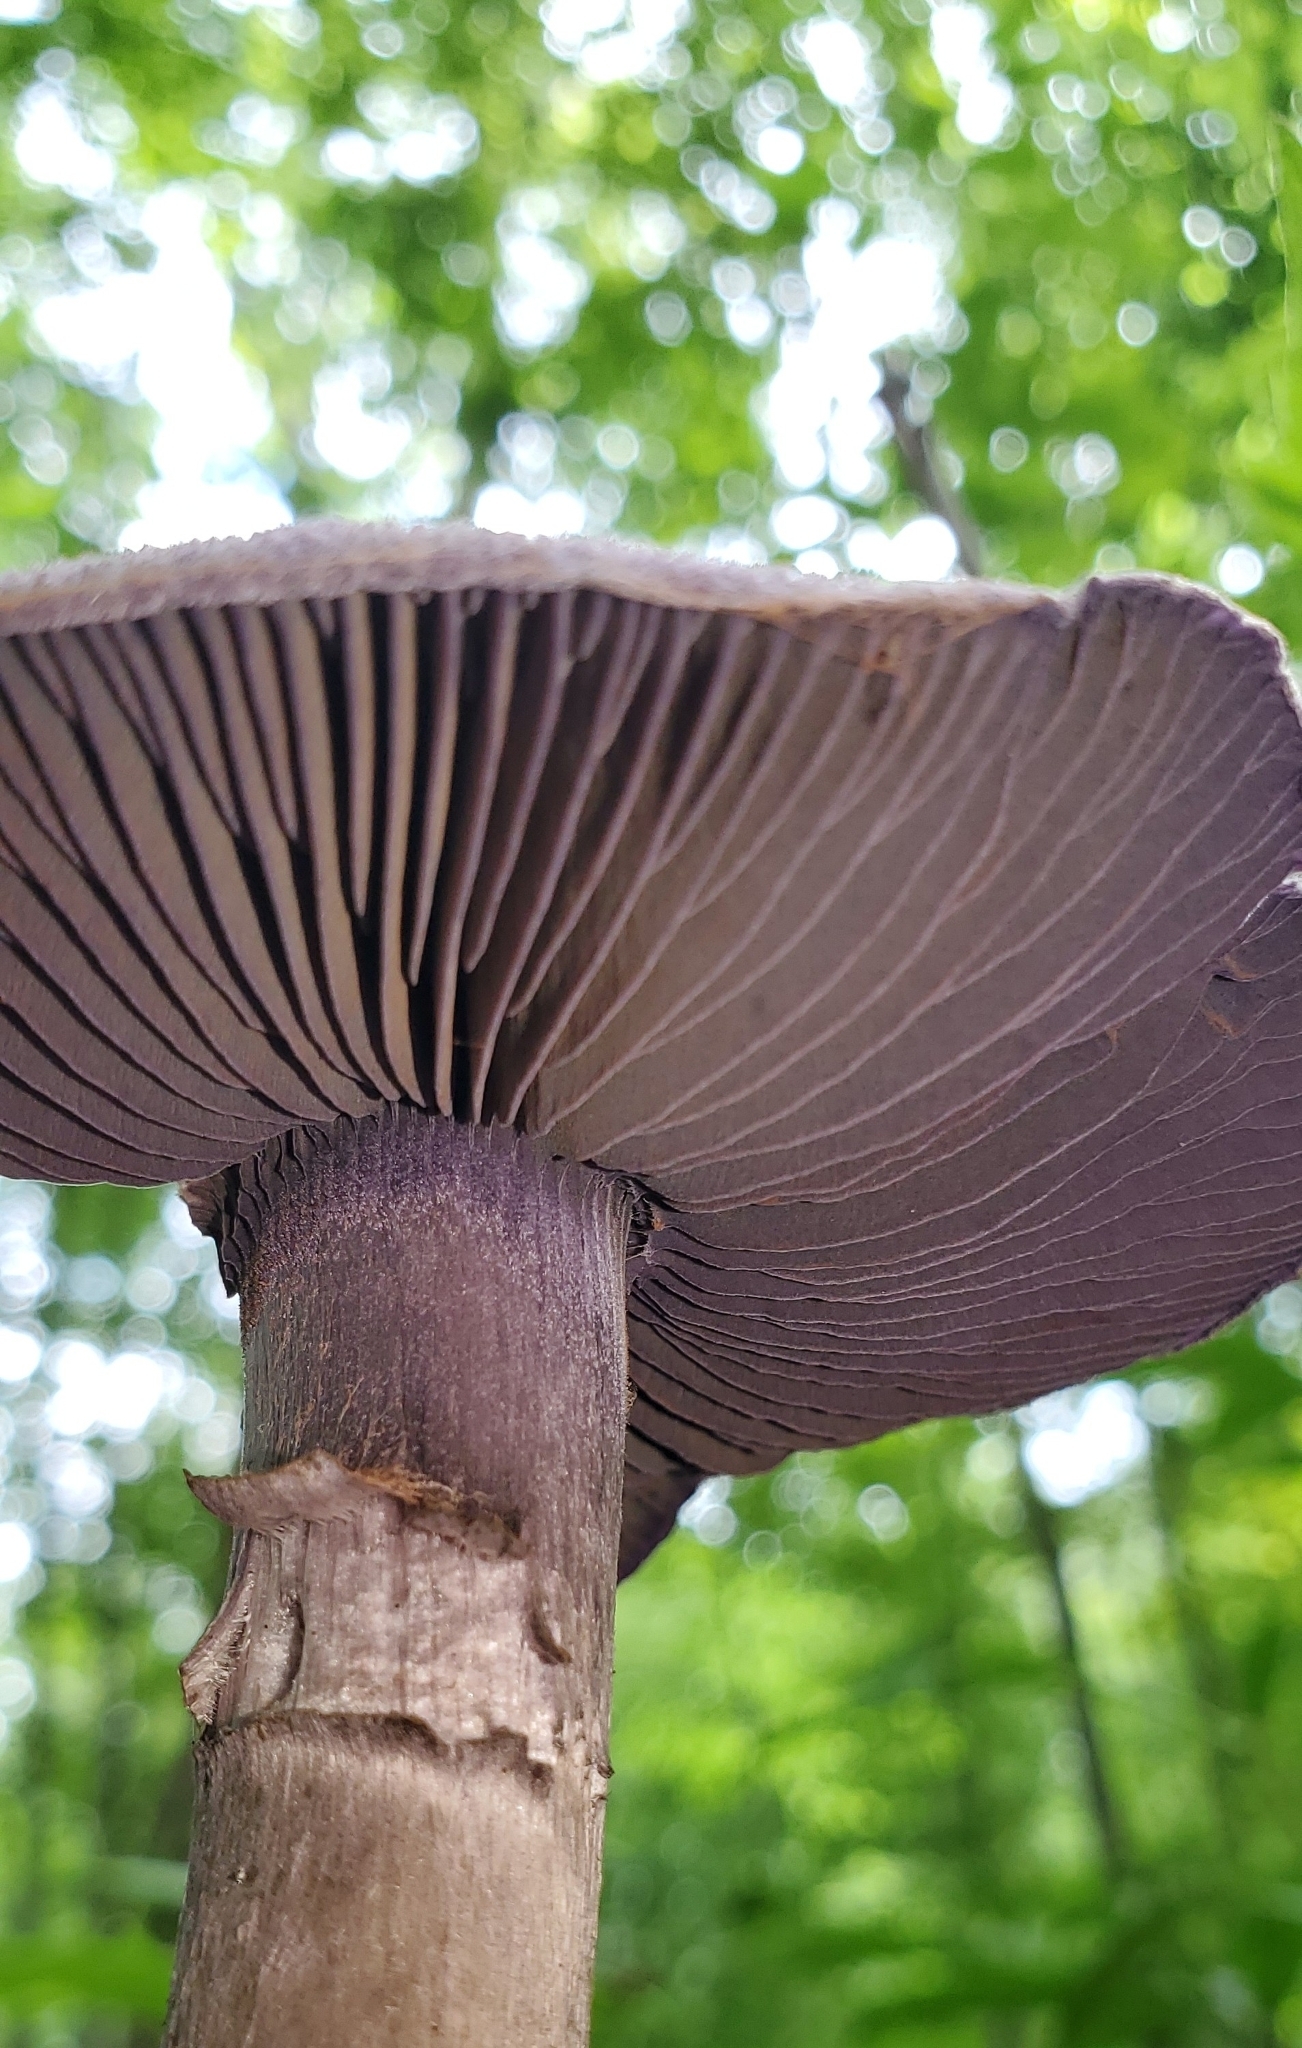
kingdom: Fungi
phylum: Basidiomycota
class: Agaricomycetes
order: Agaricales
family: Cortinariaceae
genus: Cortinarius
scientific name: Cortinarius violaceus
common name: Violet webcap
